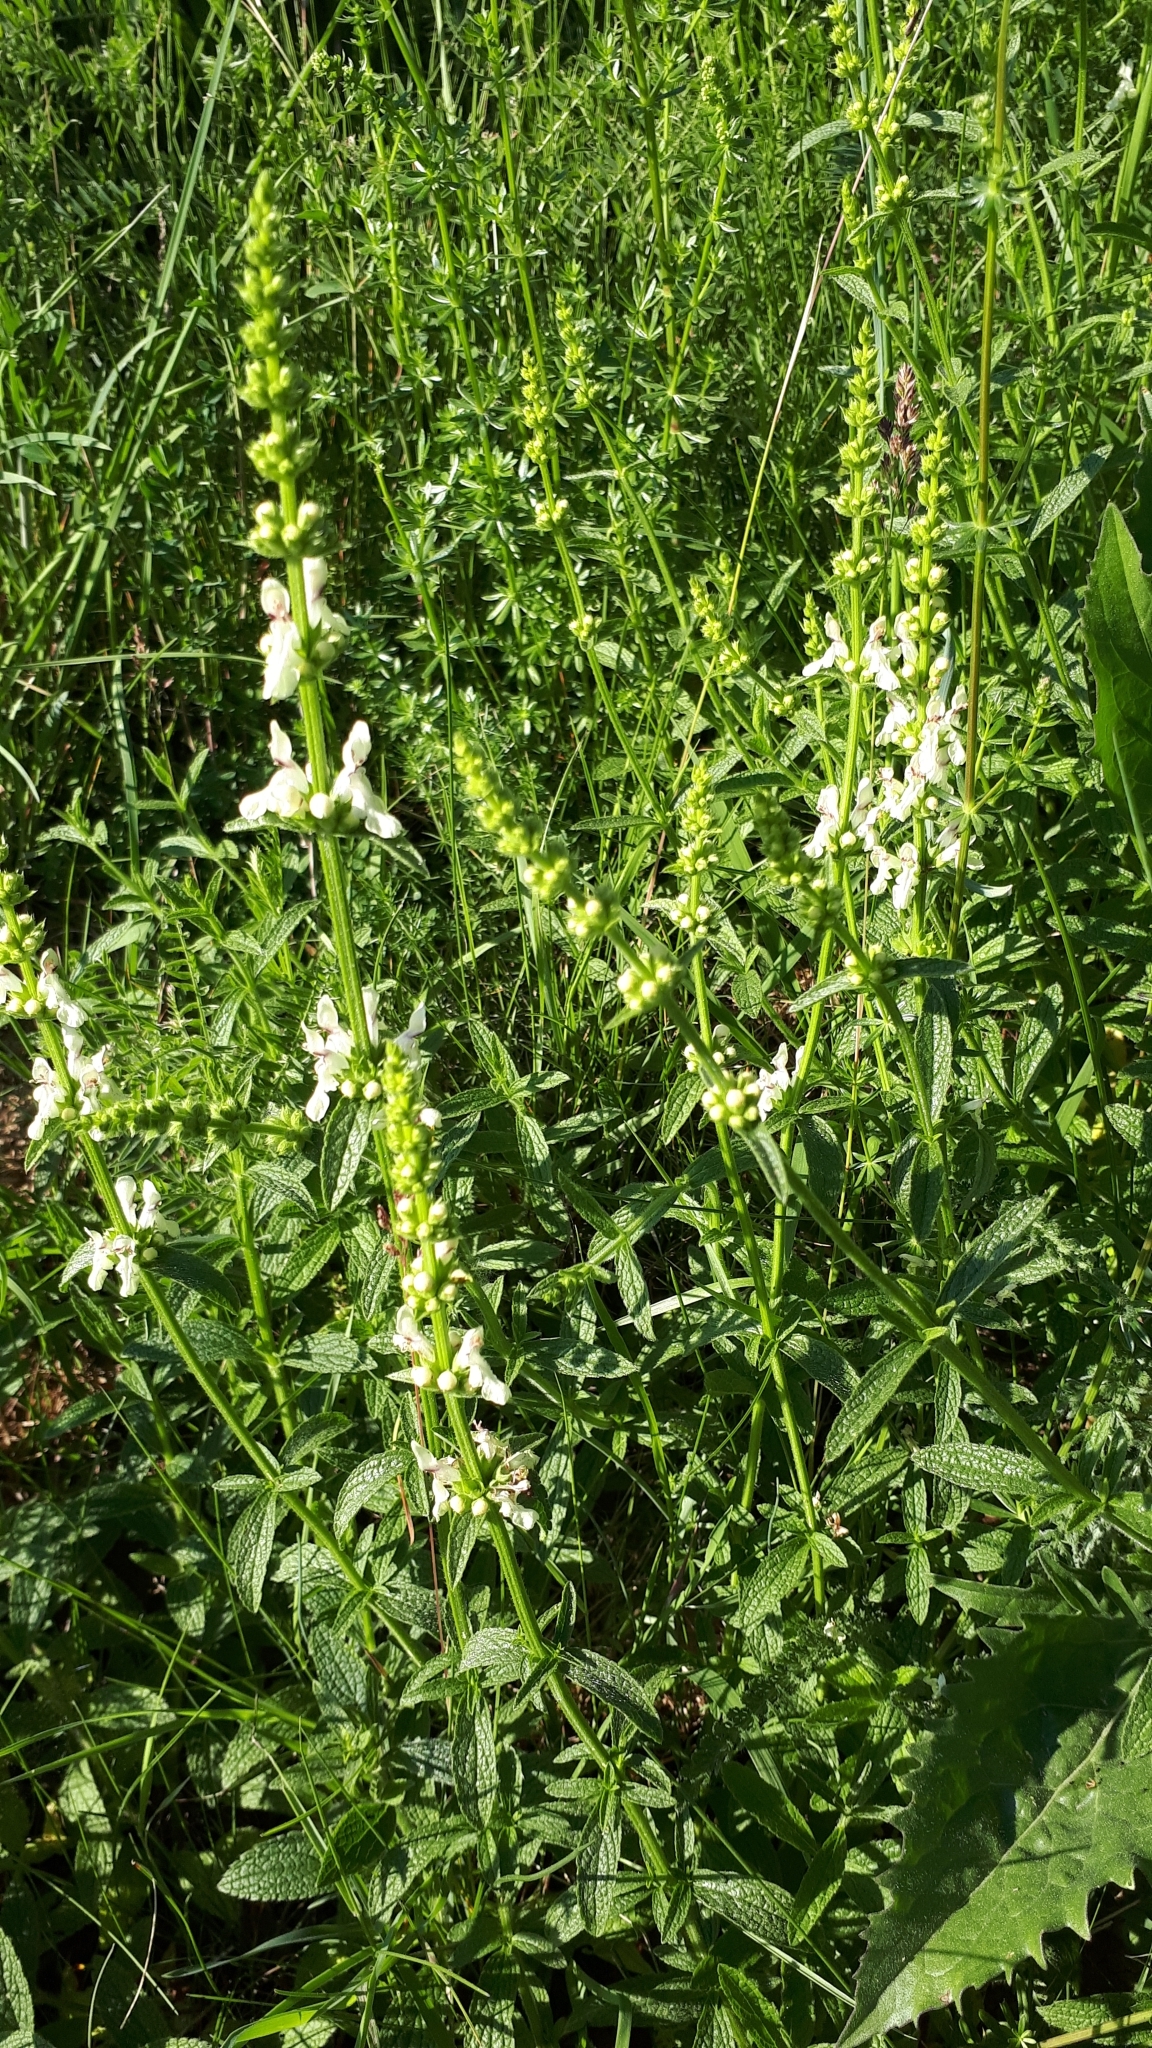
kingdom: Plantae
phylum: Tracheophyta
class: Magnoliopsida
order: Lamiales
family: Lamiaceae
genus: Stachys
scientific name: Stachys recta
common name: Perennial yellow-woundwort
